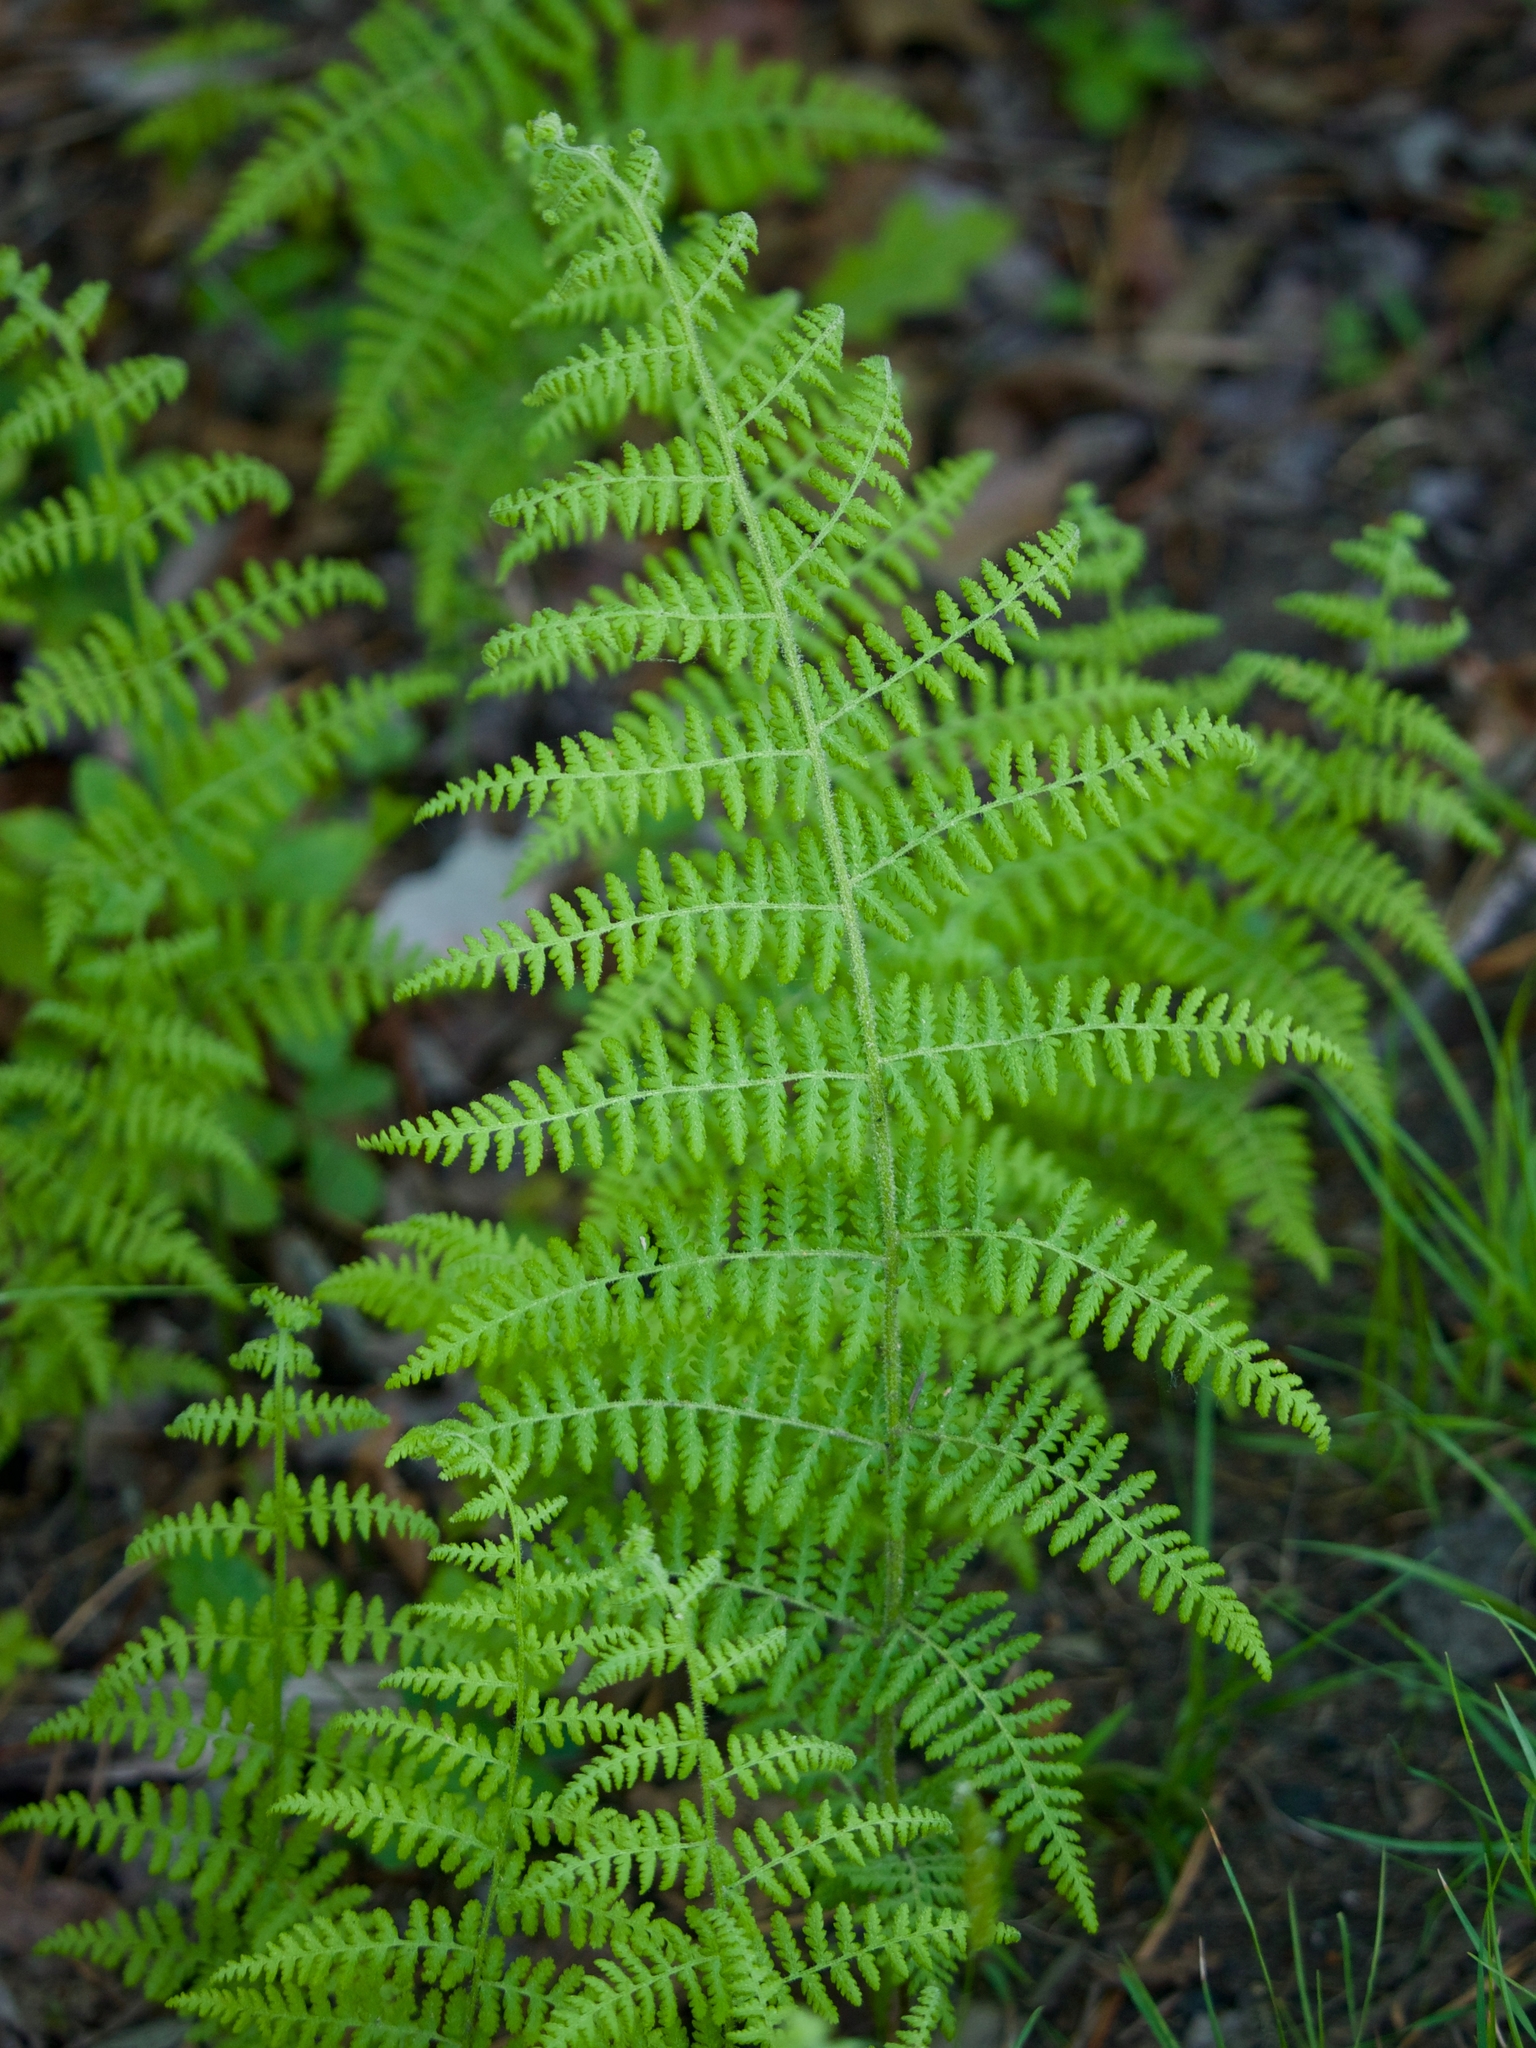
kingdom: Plantae
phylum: Tracheophyta
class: Polypodiopsida
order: Polypodiales
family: Dennstaedtiaceae
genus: Sitobolium
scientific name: Sitobolium punctilobum
